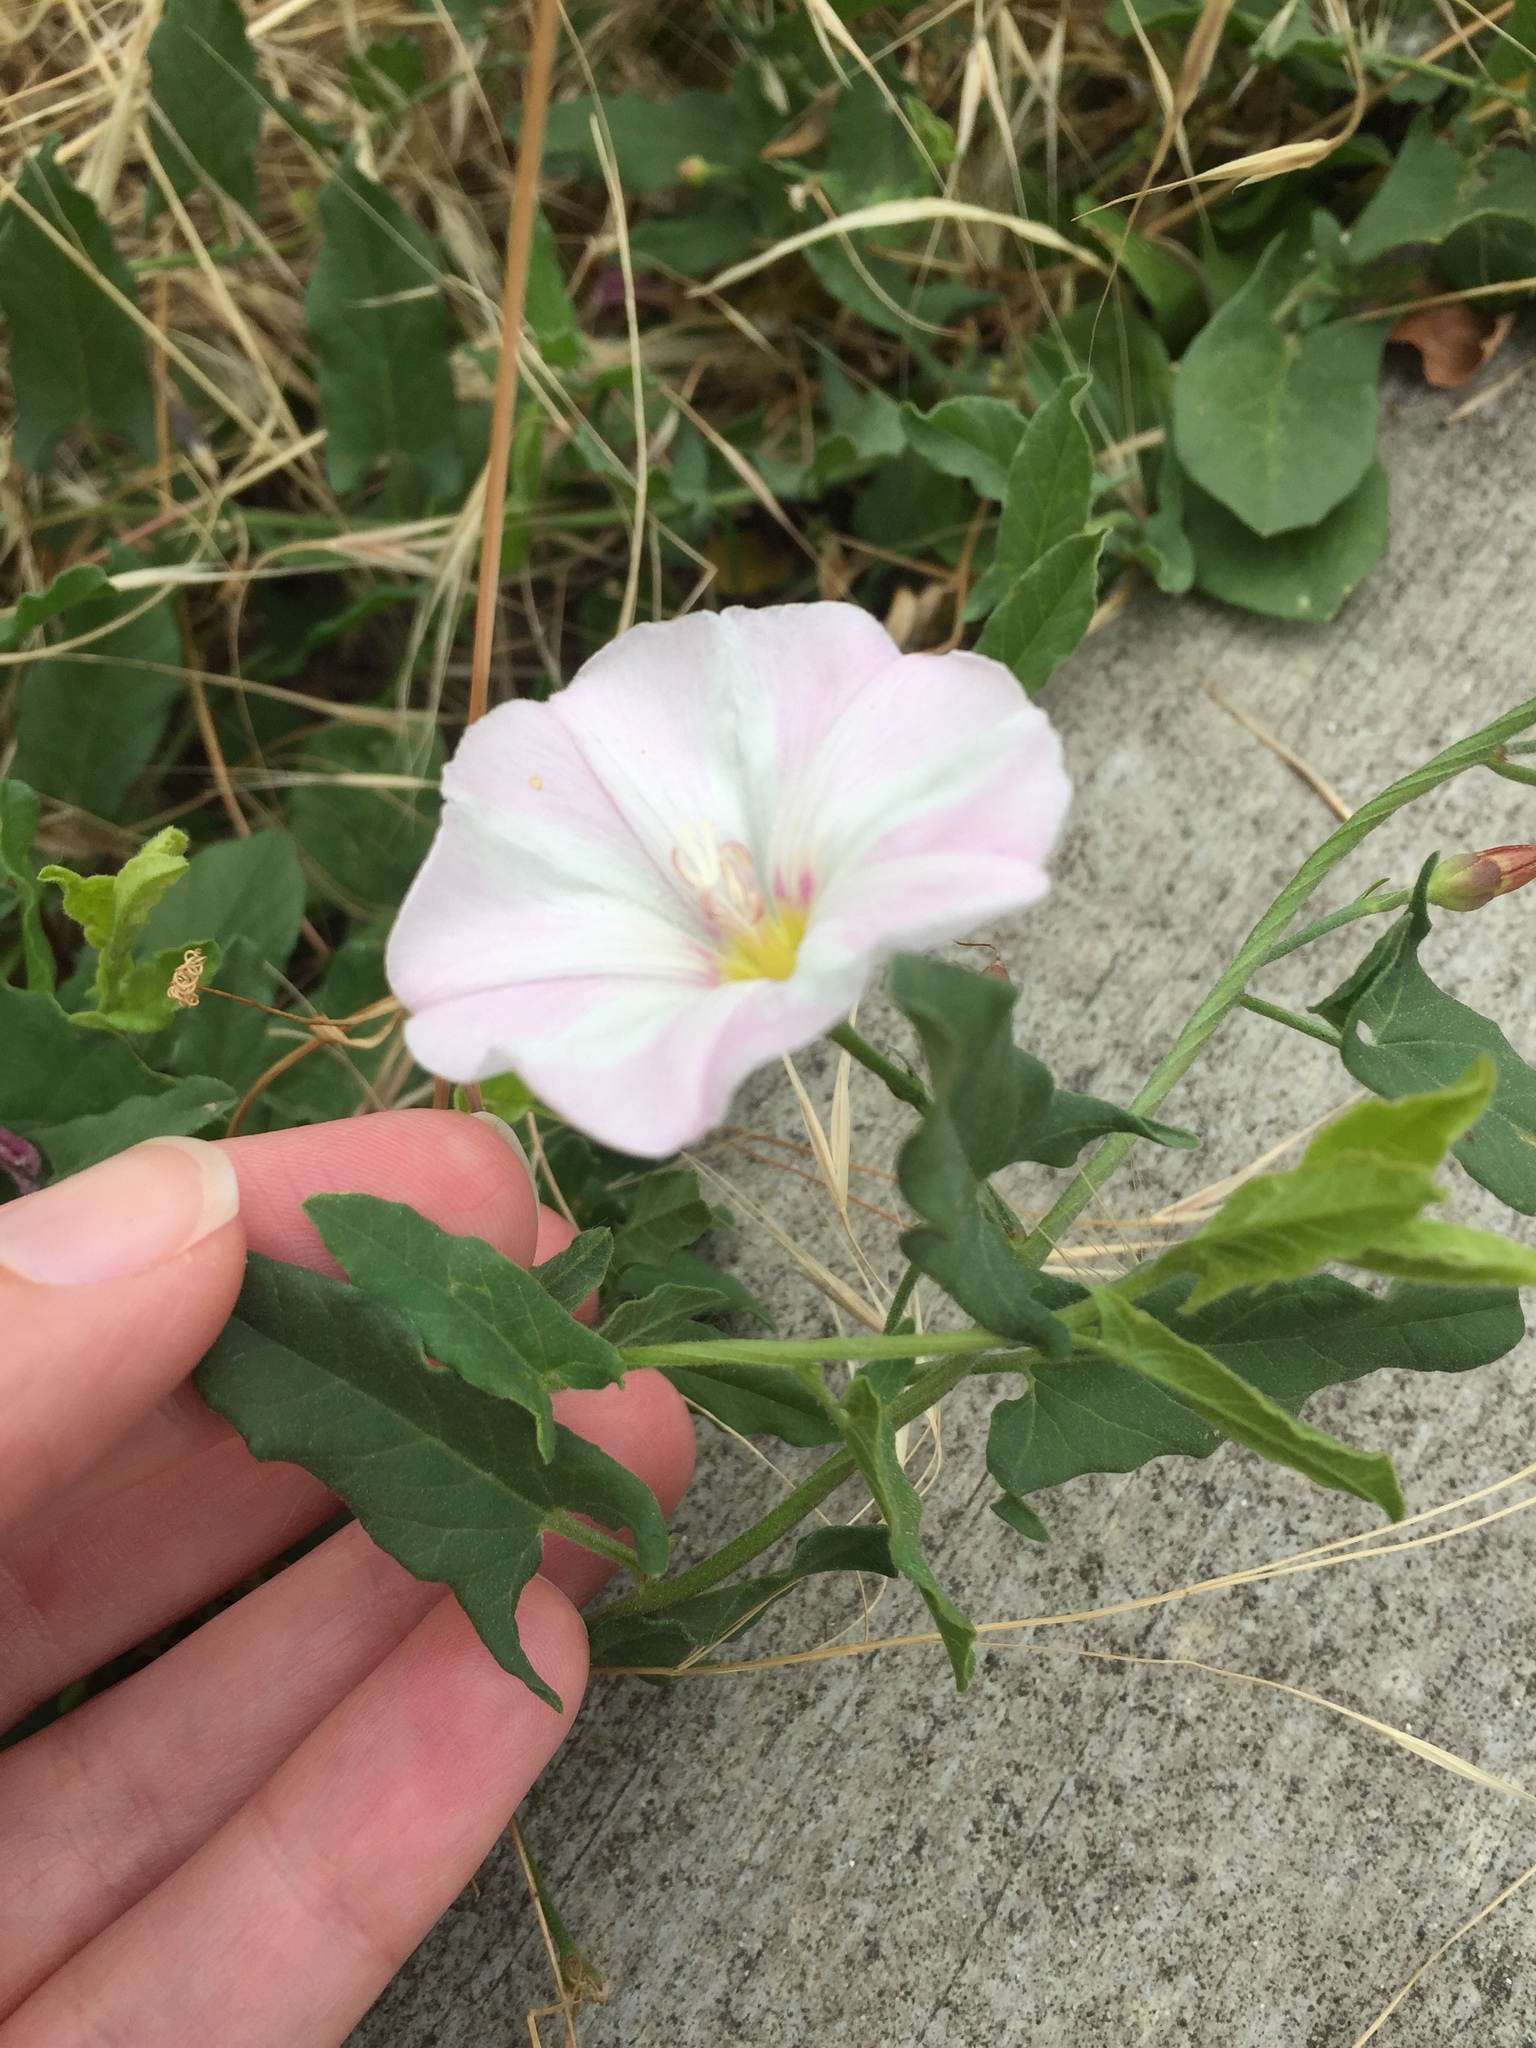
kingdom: Plantae
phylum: Tracheophyta
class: Magnoliopsida
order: Solanales
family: Convolvulaceae
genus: Convolvulus
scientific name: Convolvulus arvensis
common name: Field bindweed
